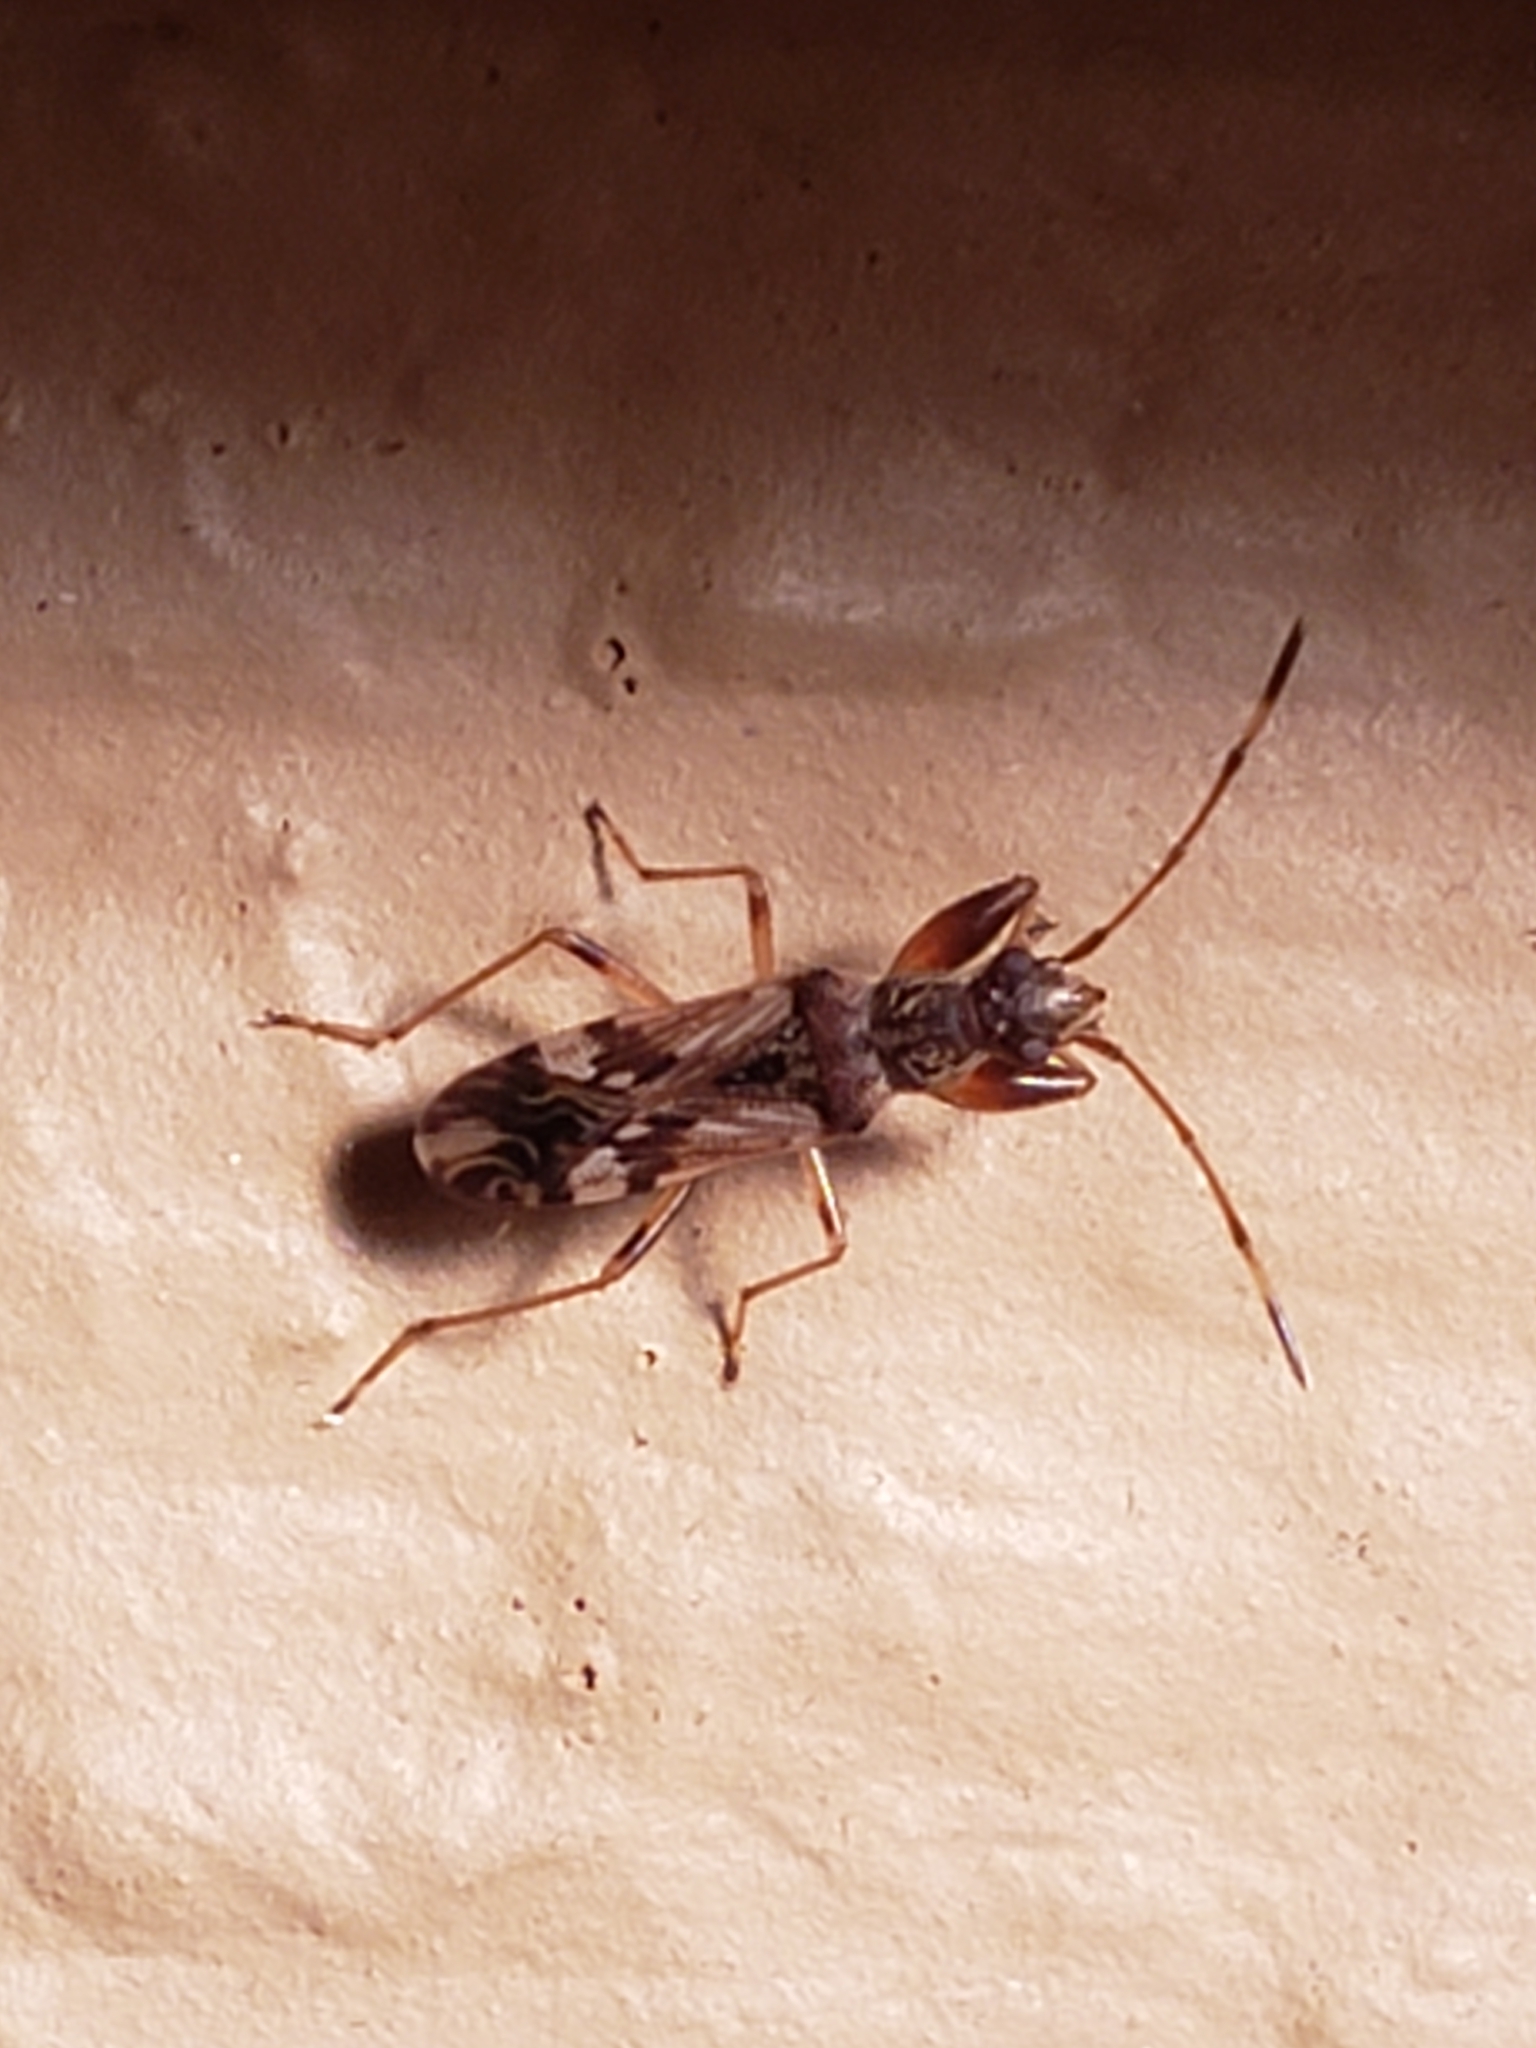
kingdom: Animalia
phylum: Arthropoda
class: Insecta
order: Hemiptera
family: Rhyparochromidae
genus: Neopamera
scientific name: Neopamera albocincta
